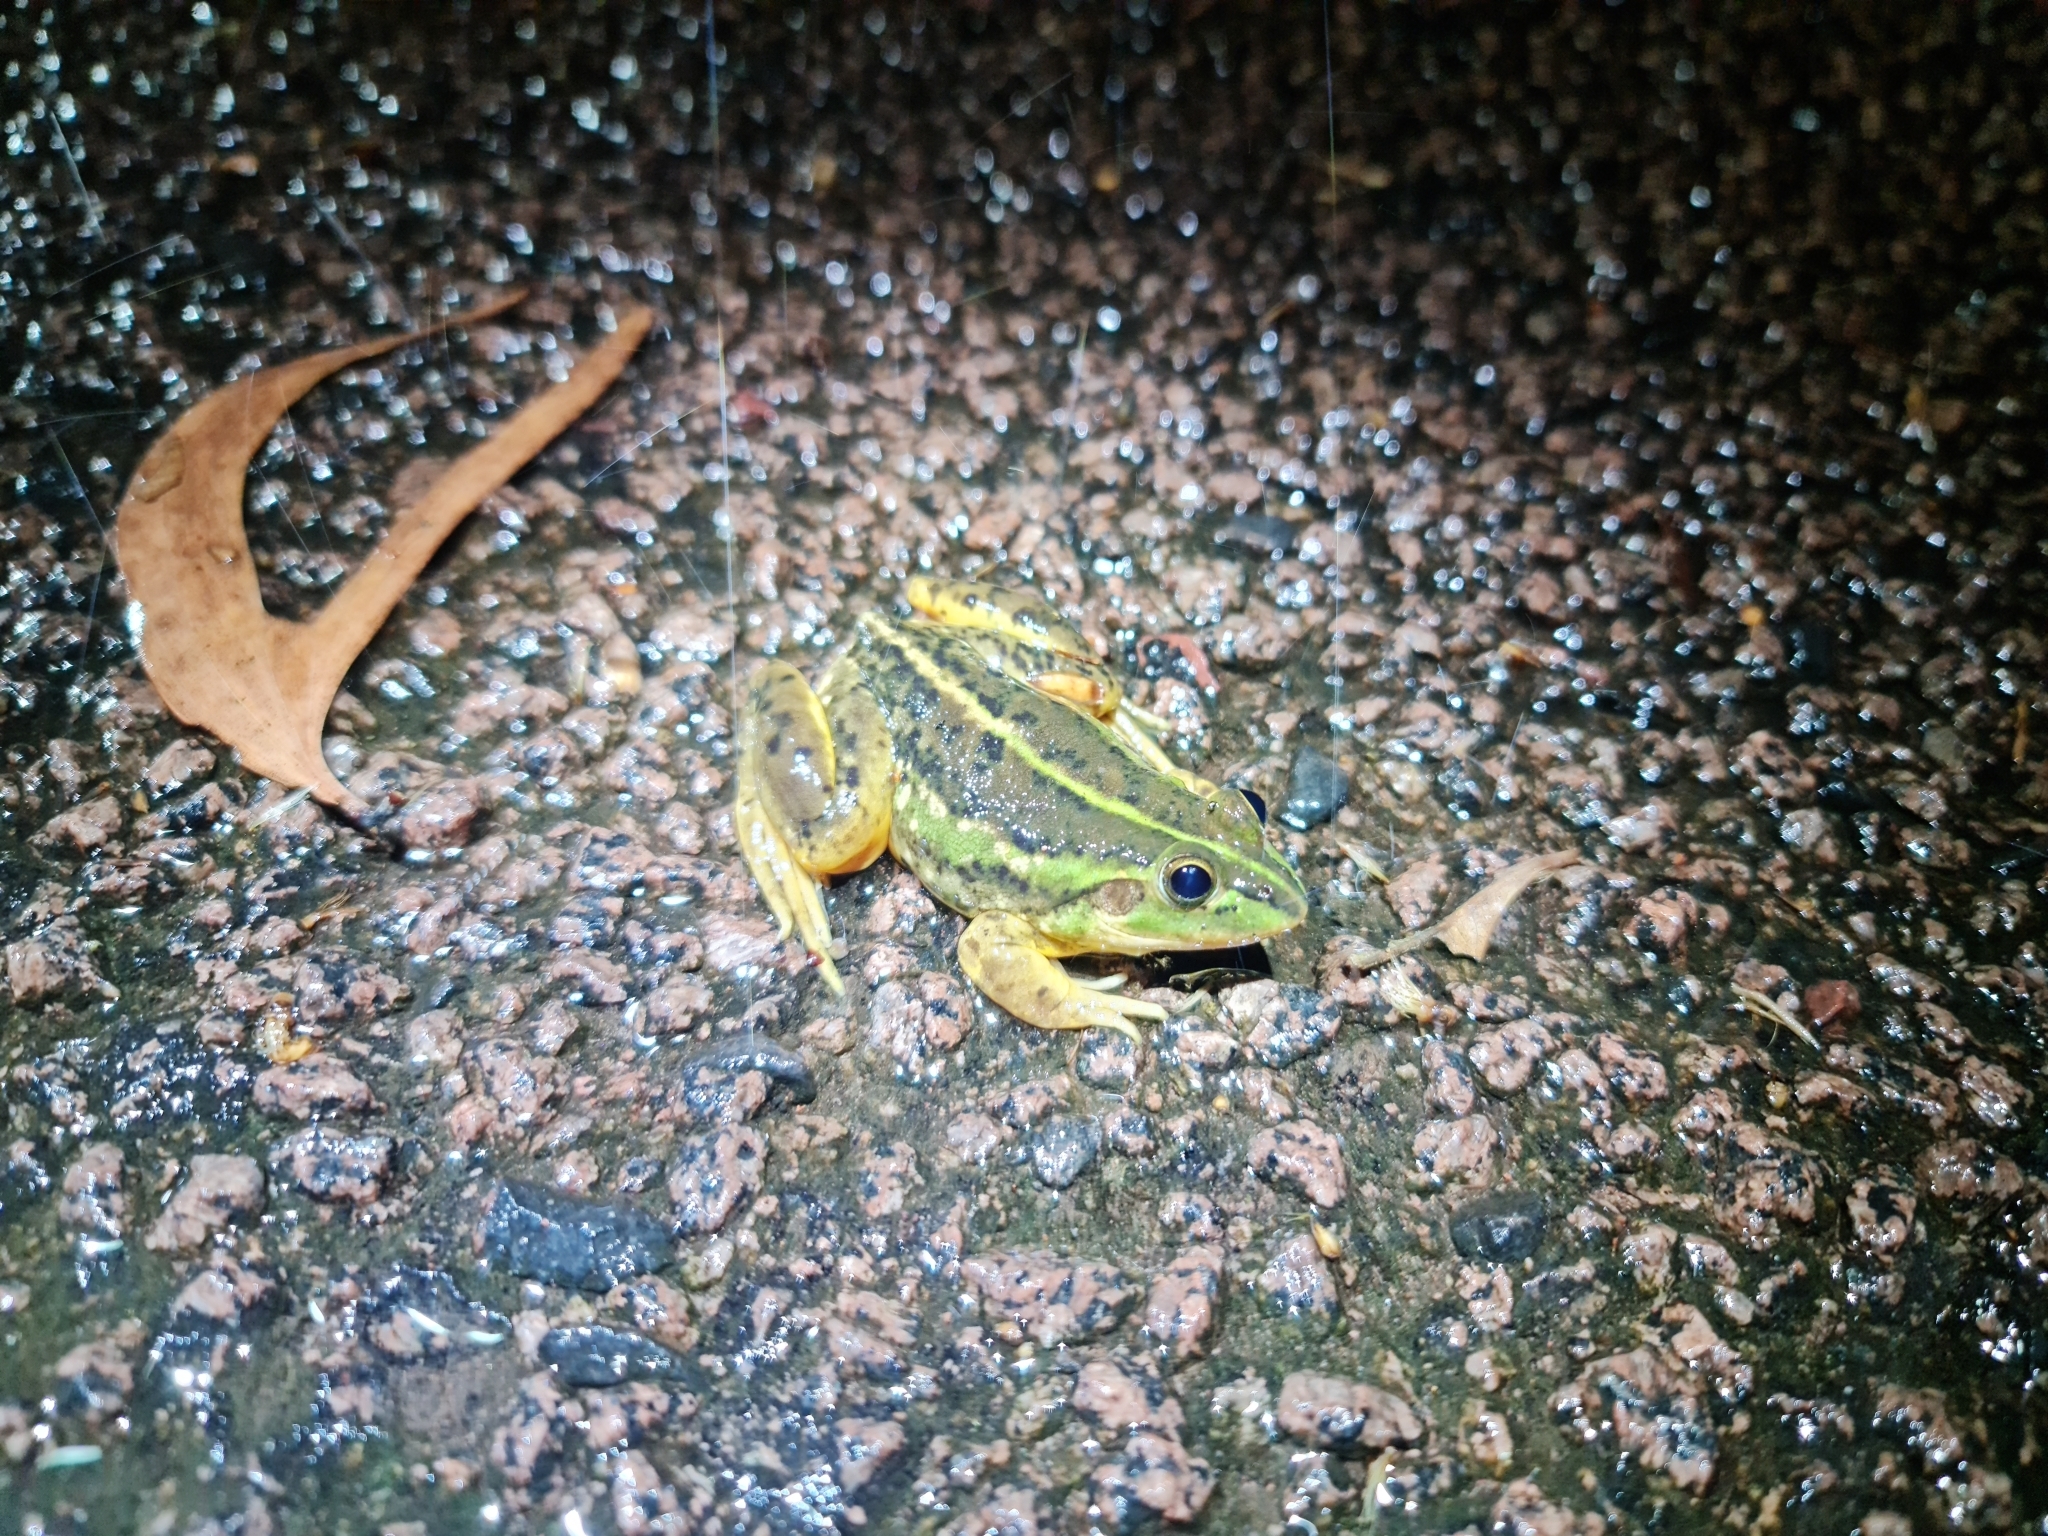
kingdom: Animalia
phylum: Chordata
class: Amphibia
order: Anura
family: Pelodryadidae
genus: Ranoidea
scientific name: Ranoidea dahlii
